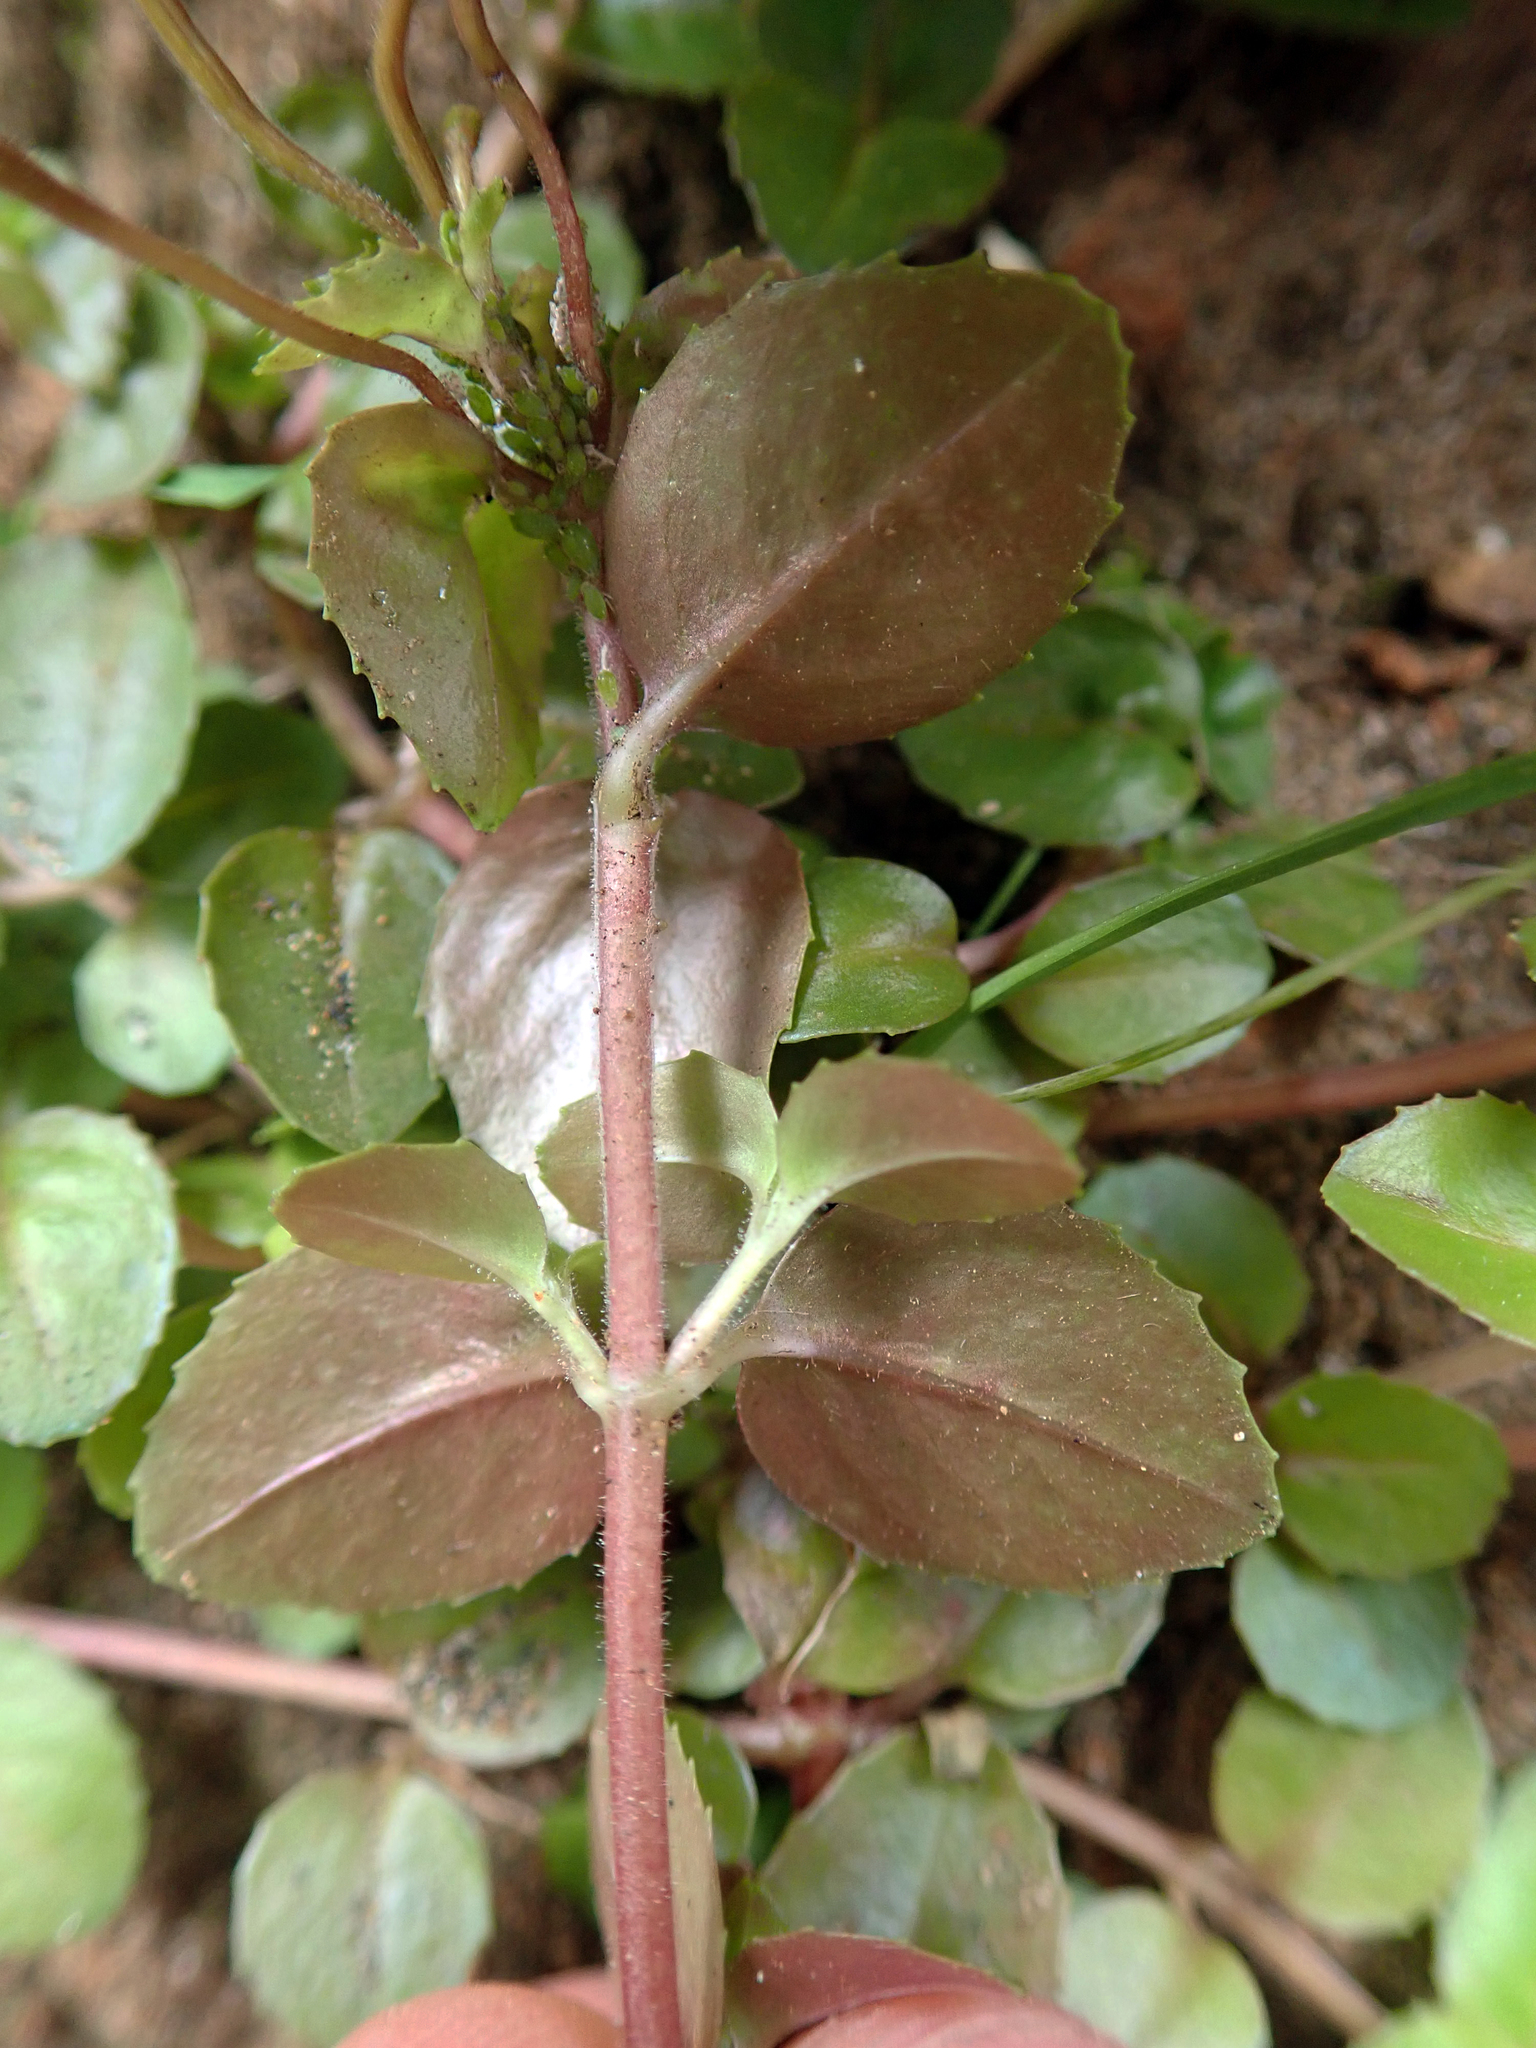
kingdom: Plantae
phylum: Tracheophyta
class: Magnoliopsida
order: Myrtales
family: Onagraceae
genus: Epilobium
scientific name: Epilobium rotundifolium
